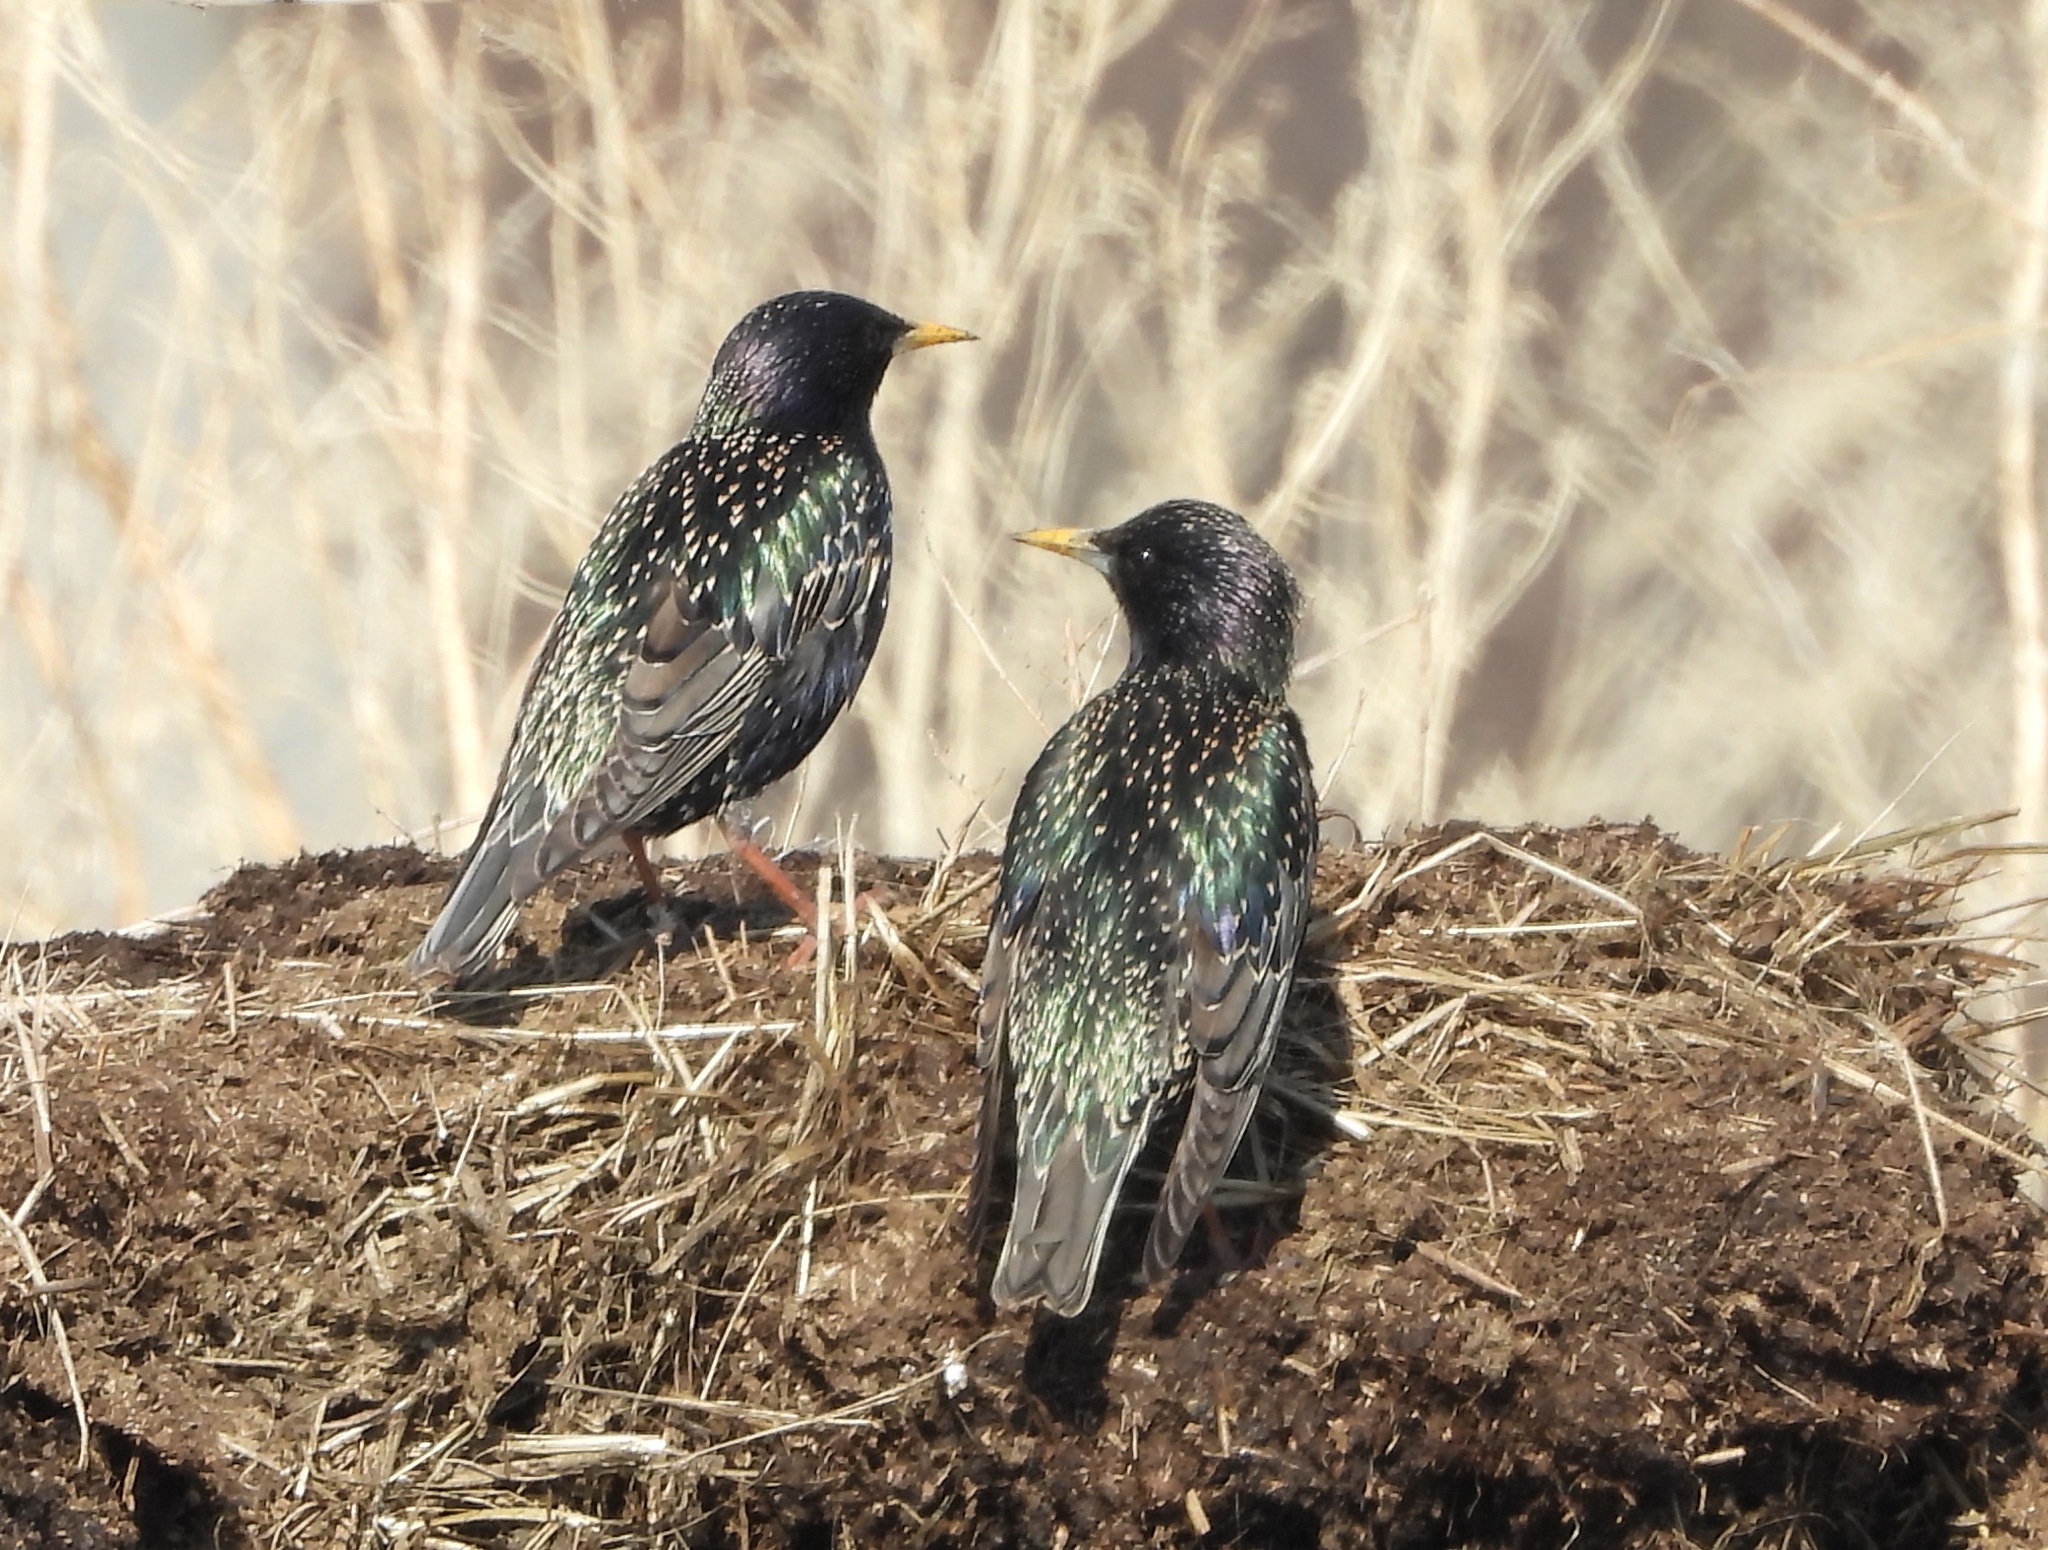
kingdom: Animalia
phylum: Chordata
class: Aves
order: Passeriformes
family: Sturnidae
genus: Sturnus
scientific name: Sturnus vulgaris
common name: Common starling
